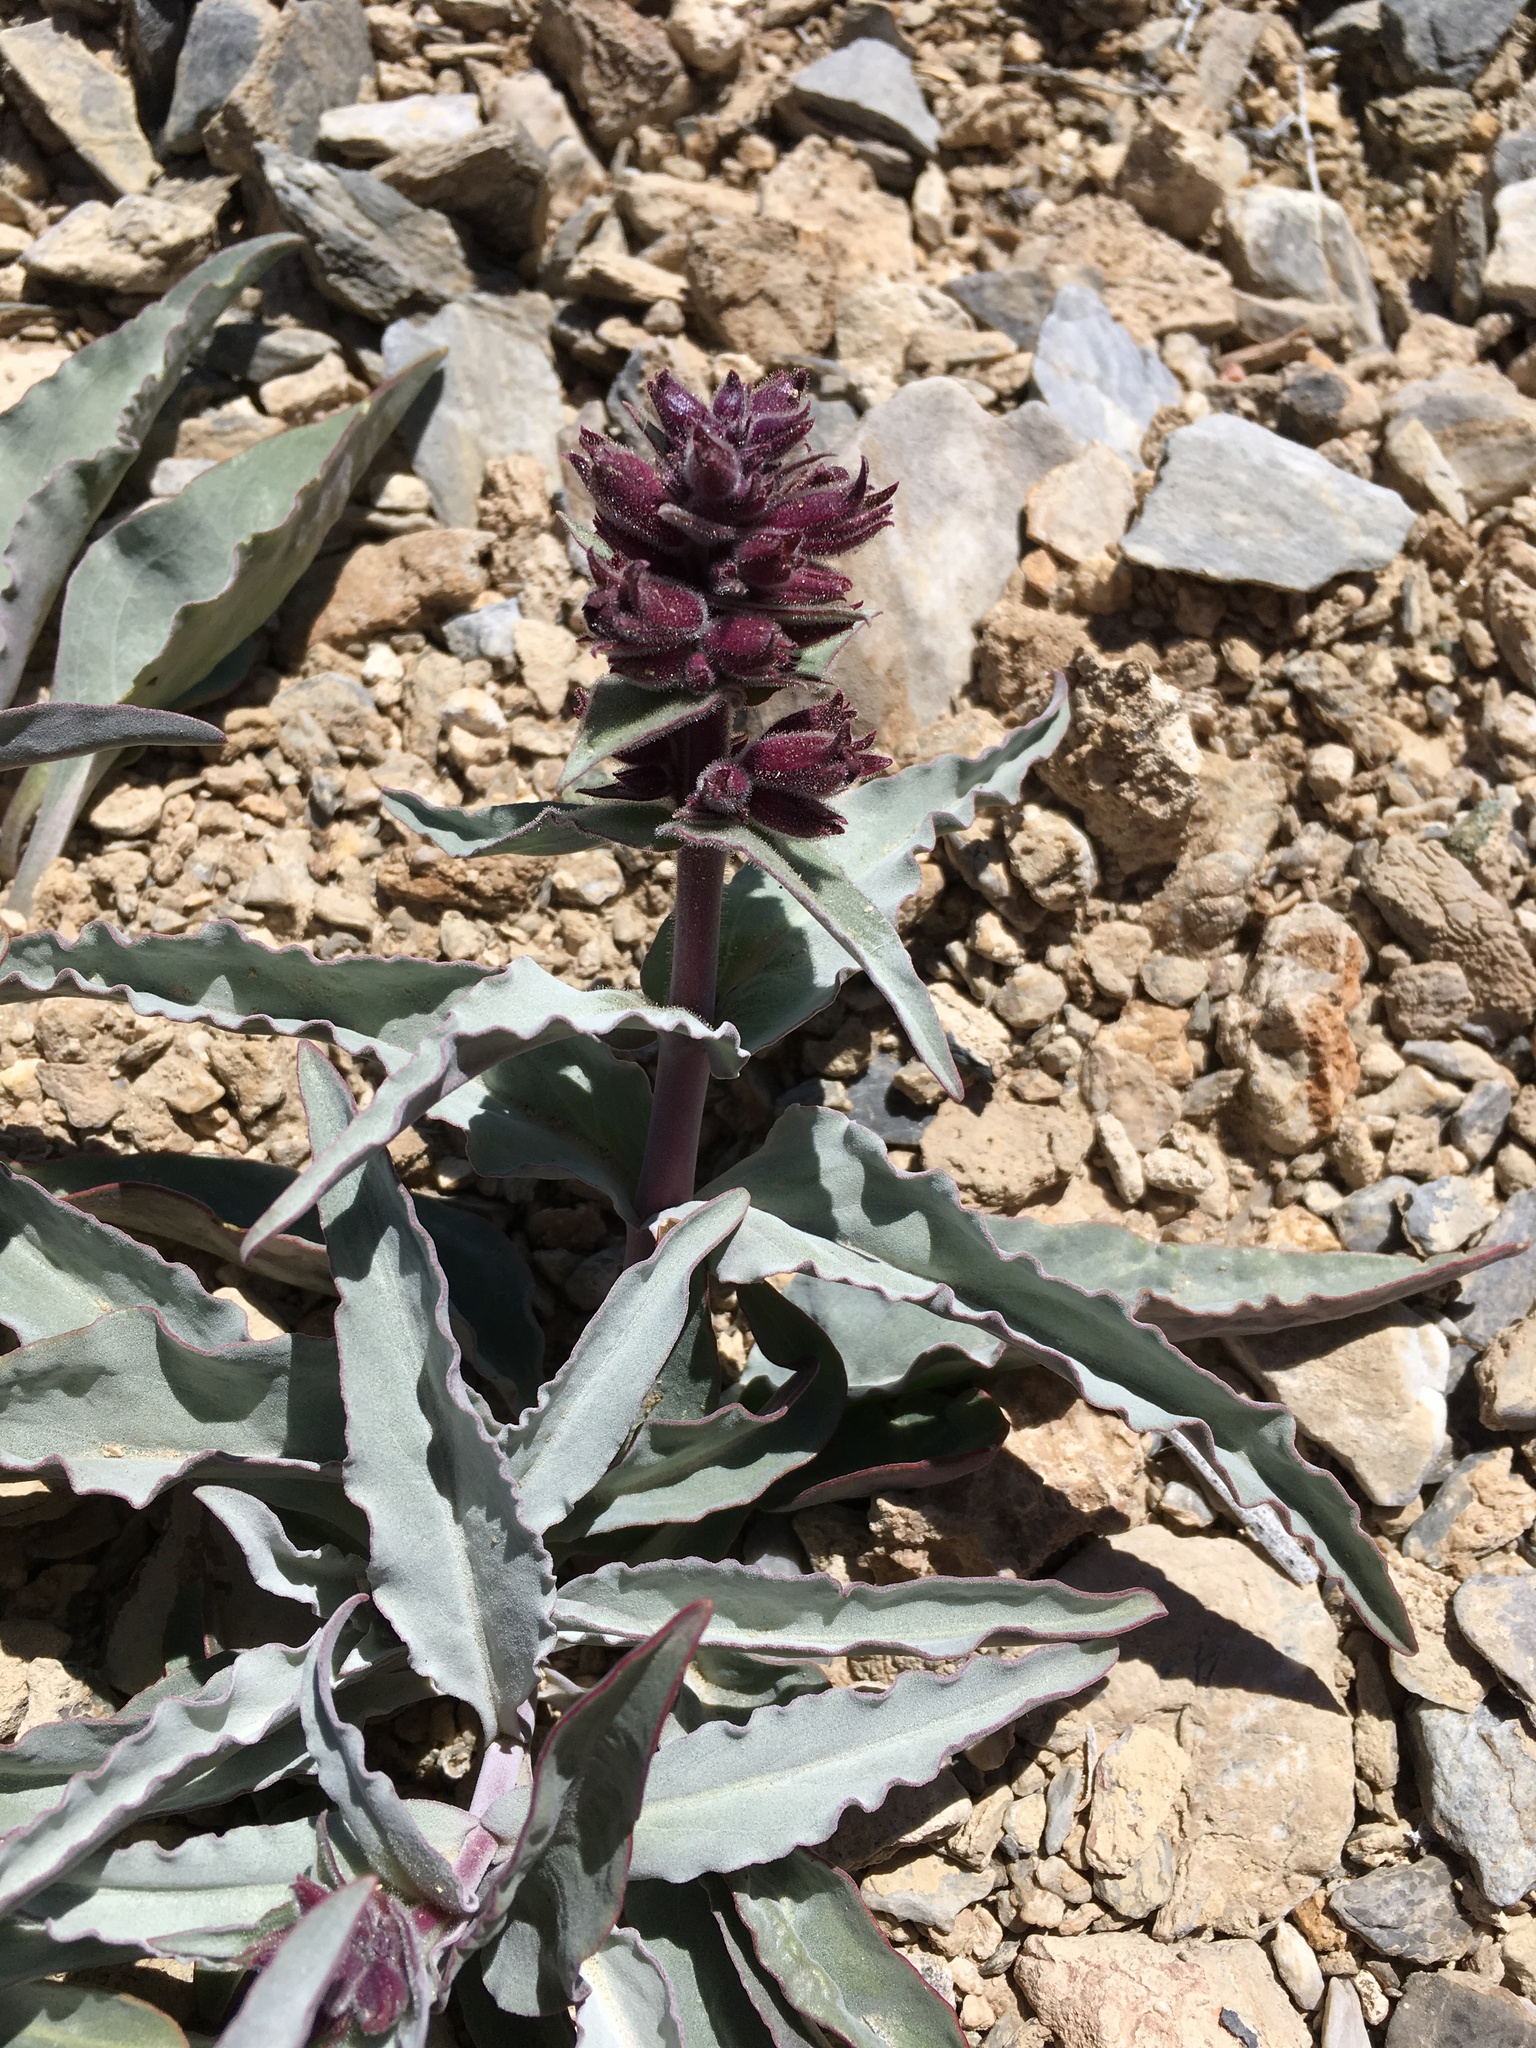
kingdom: Plantae
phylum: Tracheophyta
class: Magnoliopsida
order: Lamiales
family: Plantaginaceae
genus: Penstemon
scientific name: Penstemon monoensis
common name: Mono penstemon
